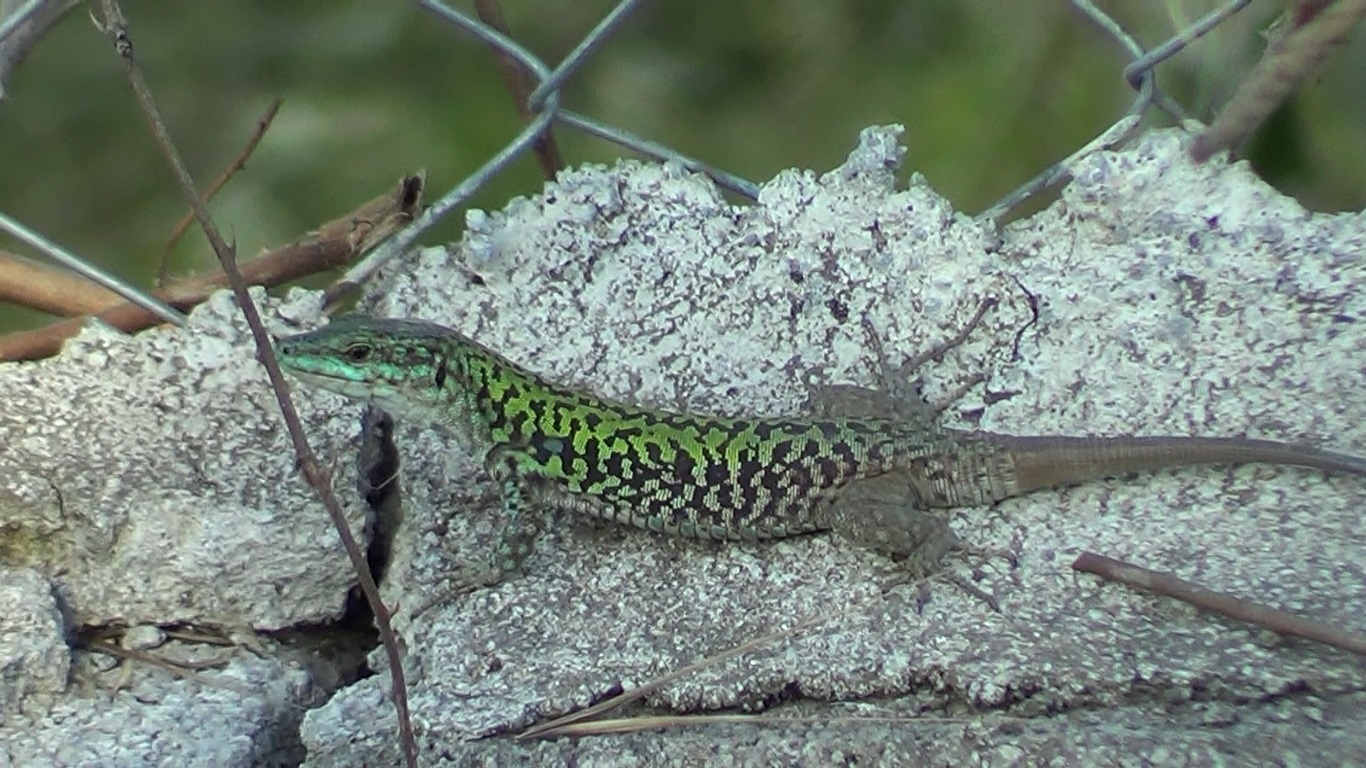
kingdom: Animalia
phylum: Chordata
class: Squamata
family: Lacertidae
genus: Podarcis
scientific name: Podarcis siculus
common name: Italian wall lizard
